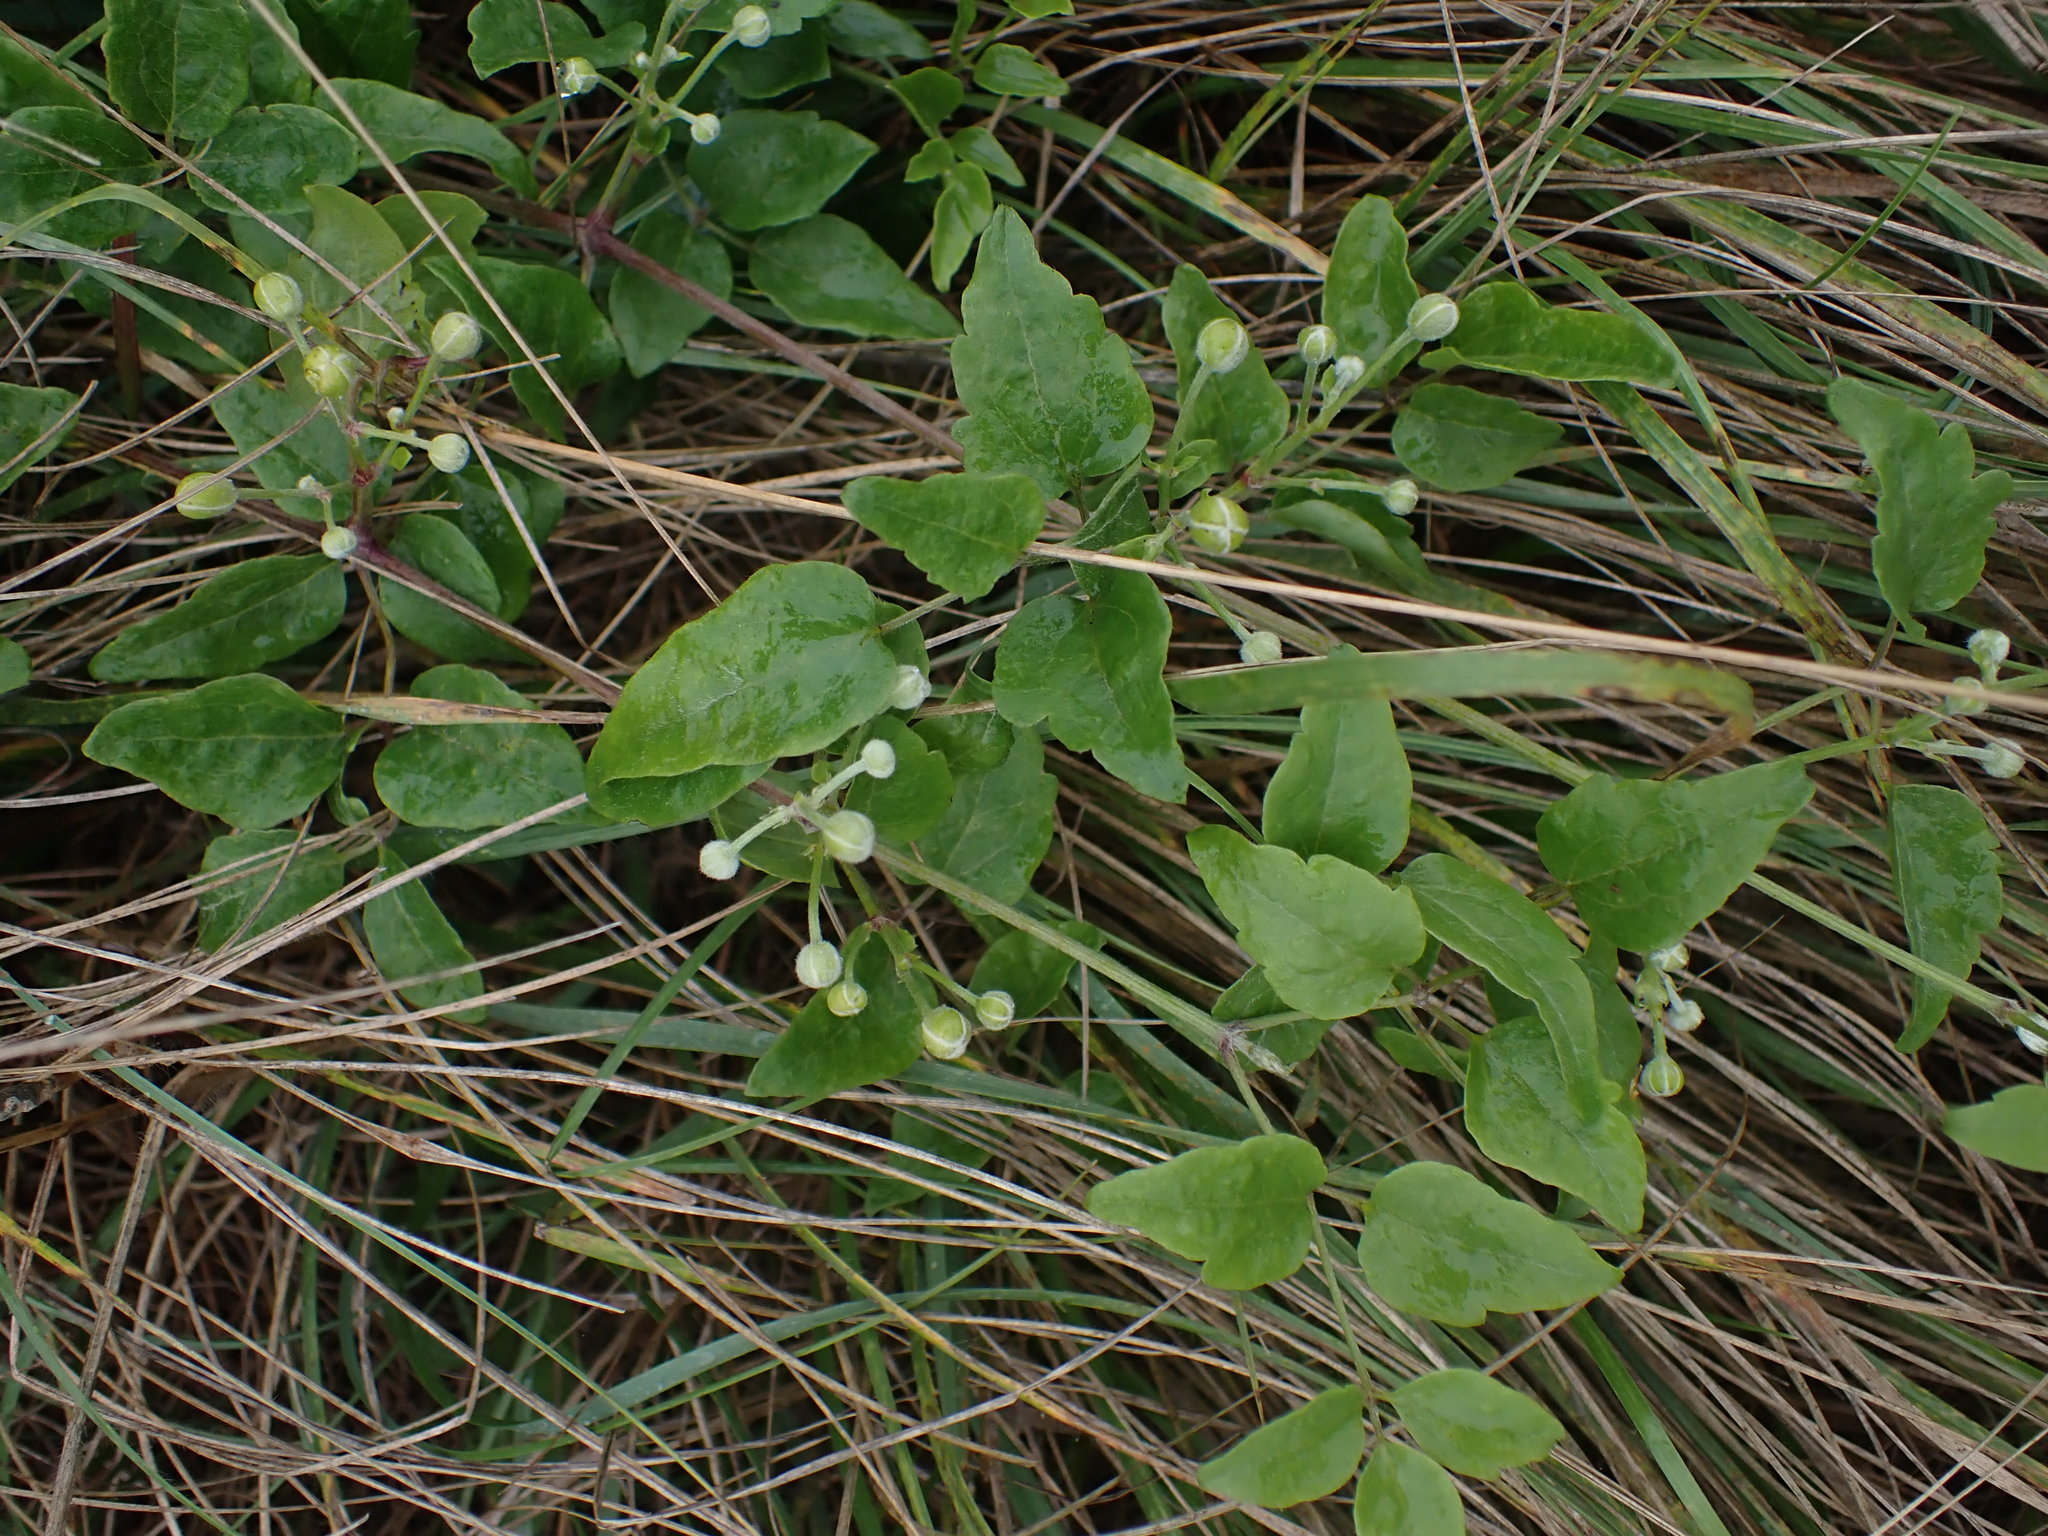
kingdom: Plantae
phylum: Tracheophyta
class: Magnoliopsida
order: Ranunculales
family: Ranunculaceae
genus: Clematis
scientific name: Clematis vitalba
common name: Evergreen clematis
